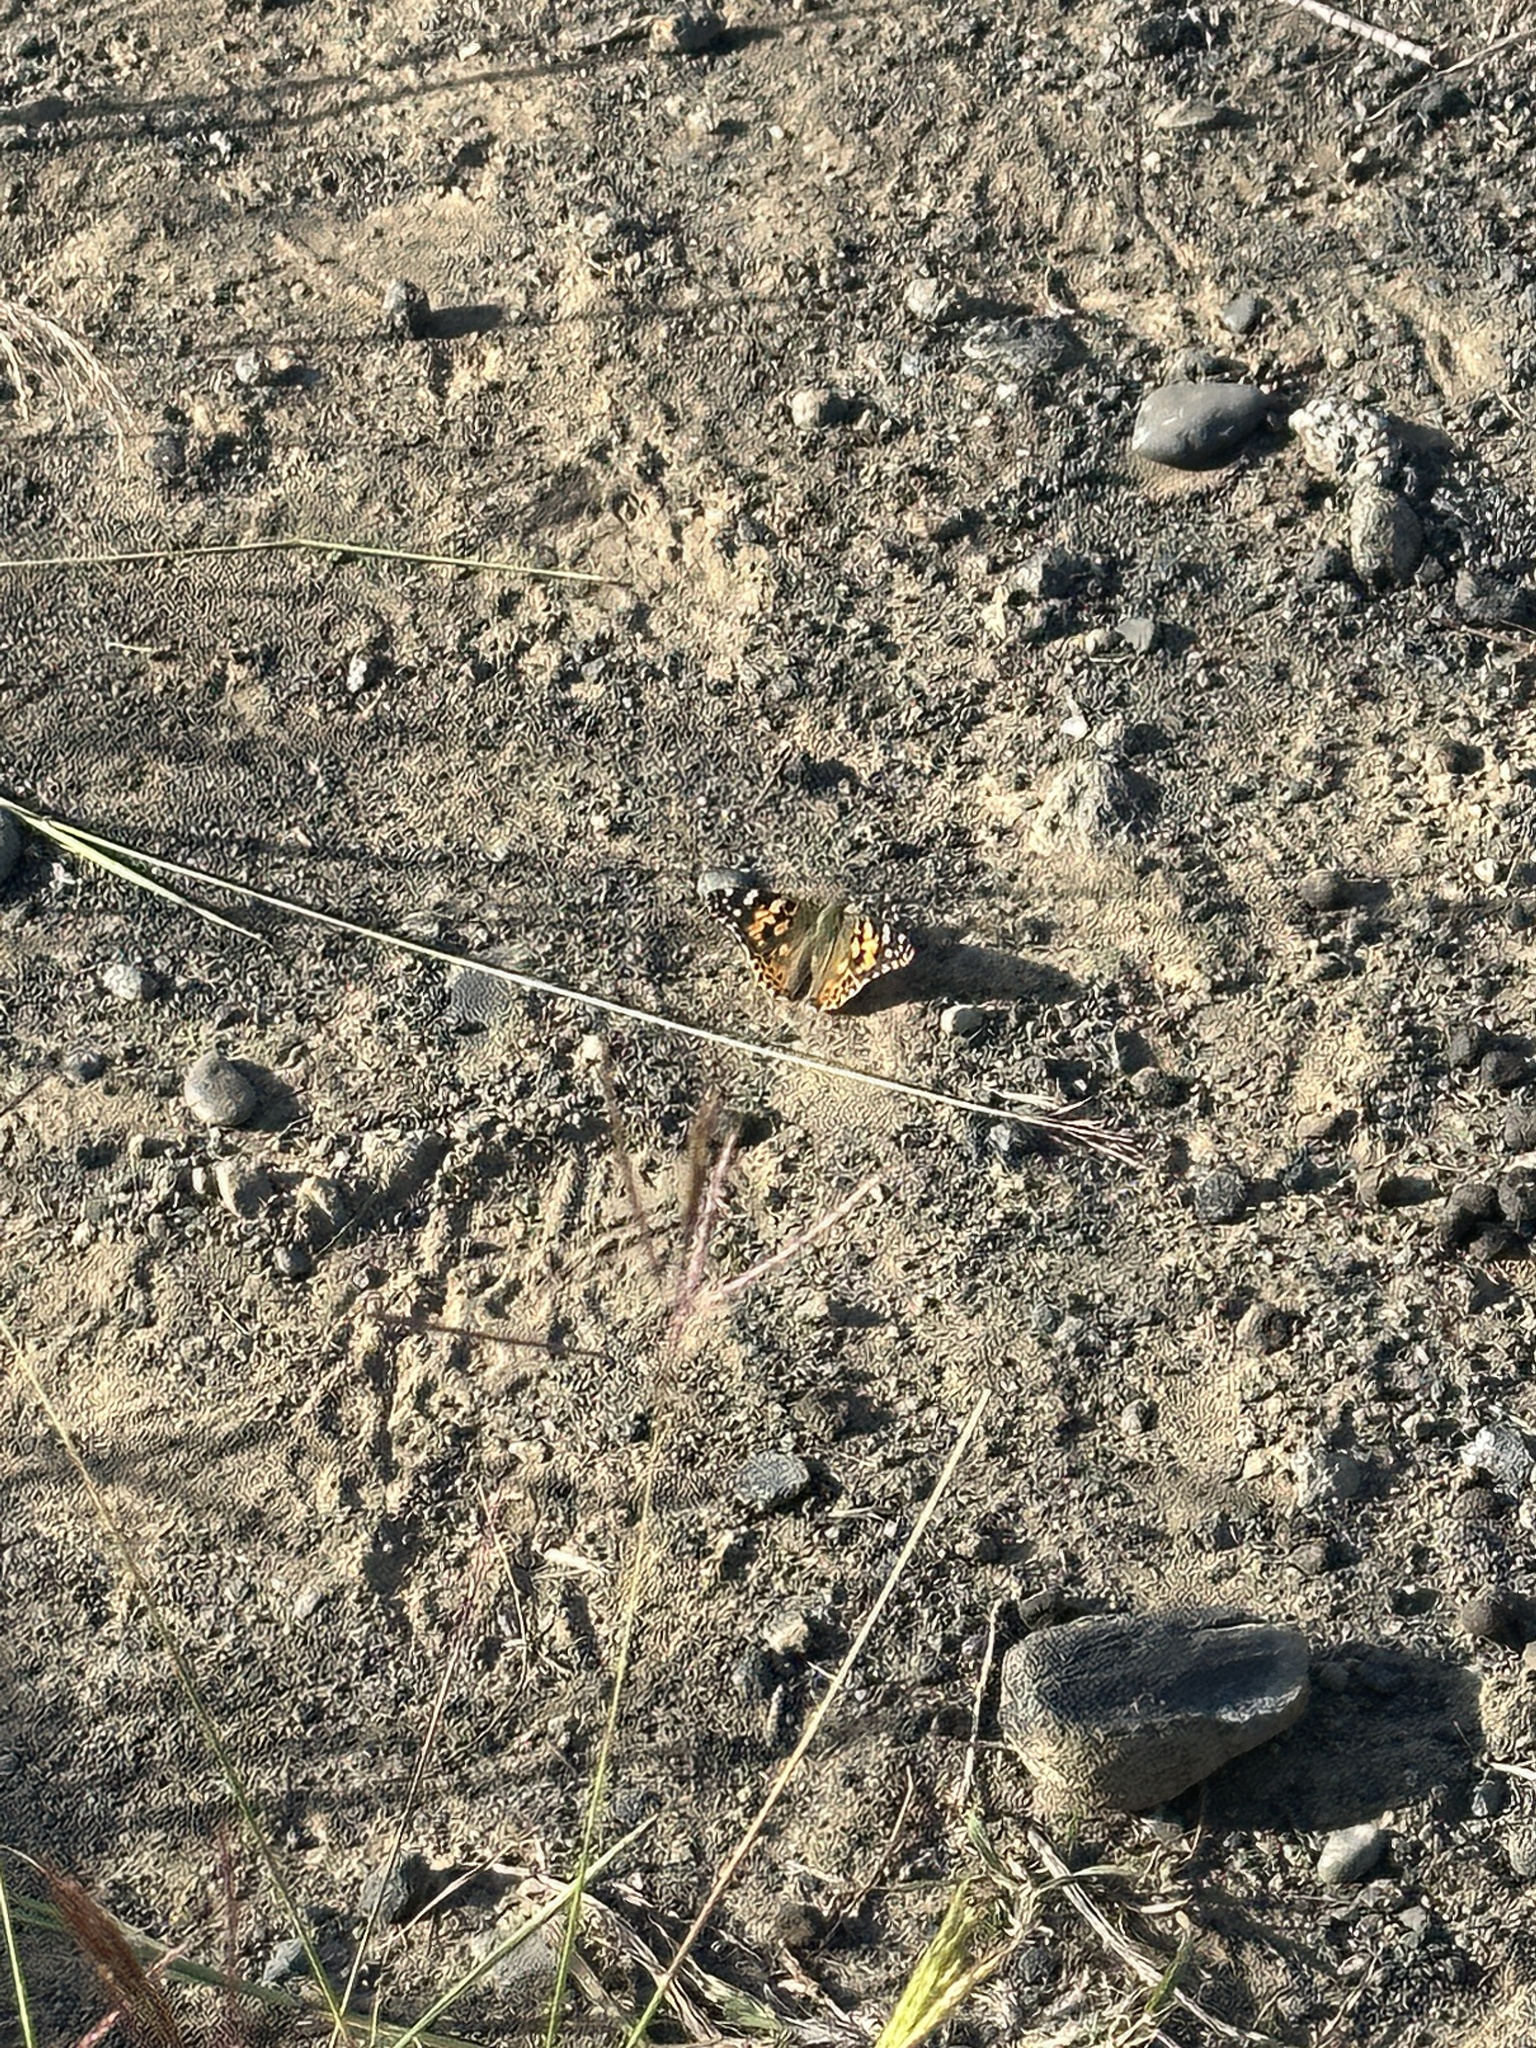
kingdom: Animalia
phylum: Arthropoda
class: Insecta
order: Lepidoptera
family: Nymphalidae
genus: Vanessa
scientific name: Vanessa cardui
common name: Painted lady
